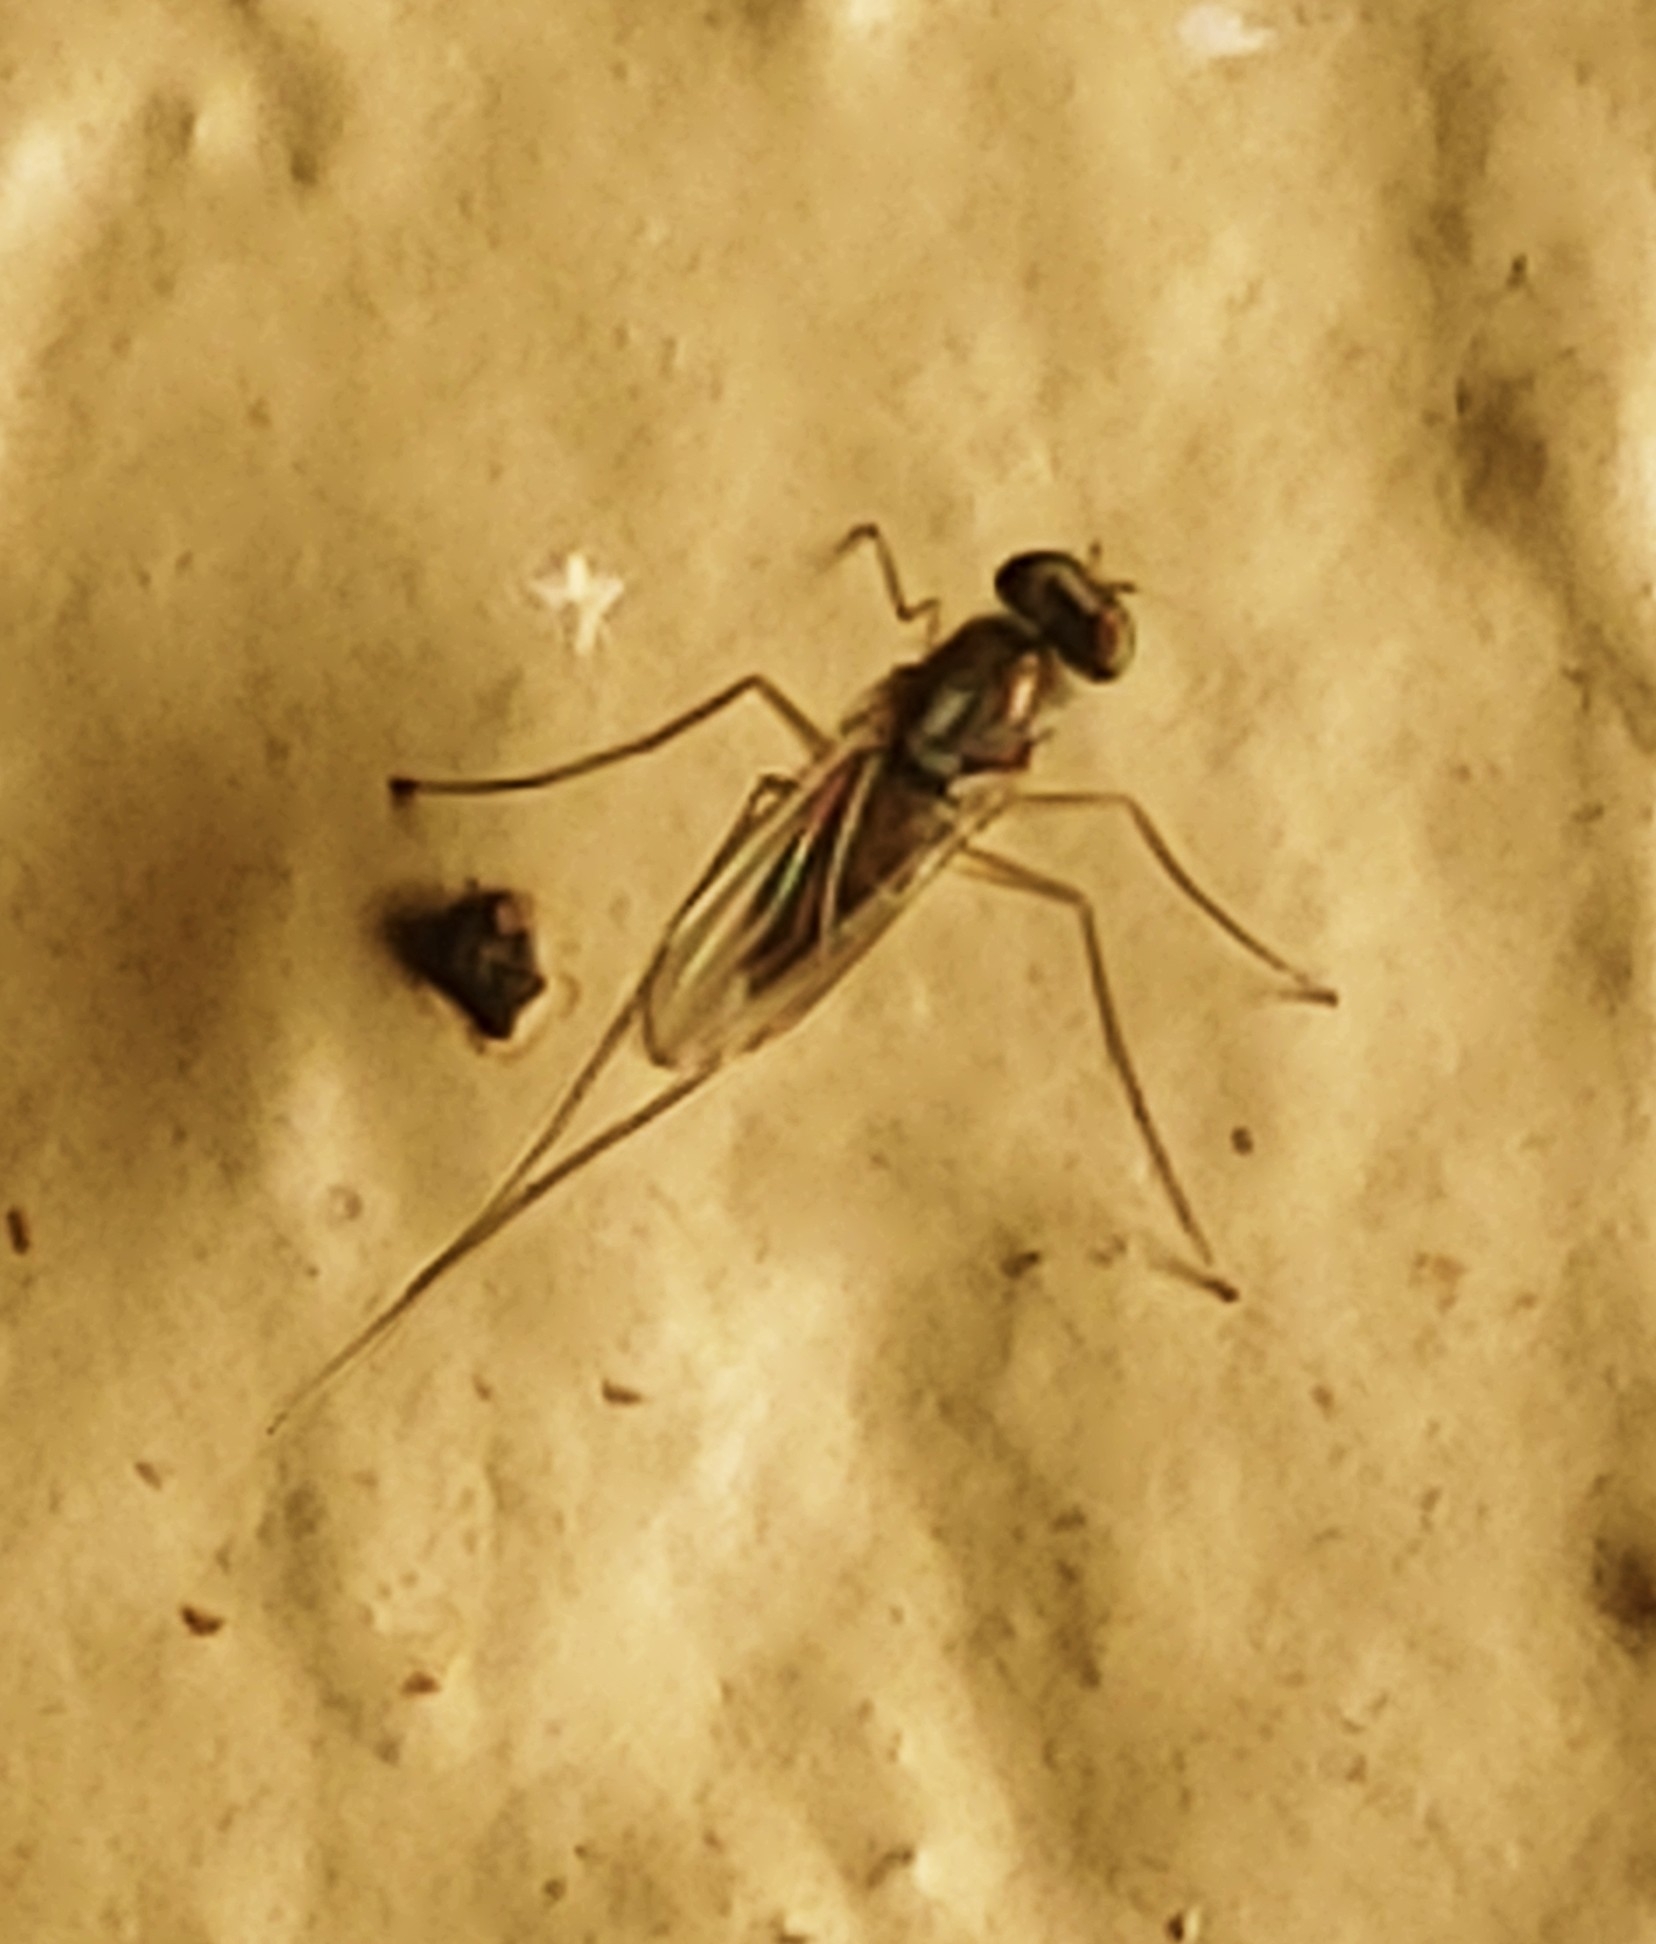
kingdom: Animalia
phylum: Arthropoda
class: Insecta
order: Diptera
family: Dolichopodidae
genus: Dactylomyia
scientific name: Dactylomyia lateralis
